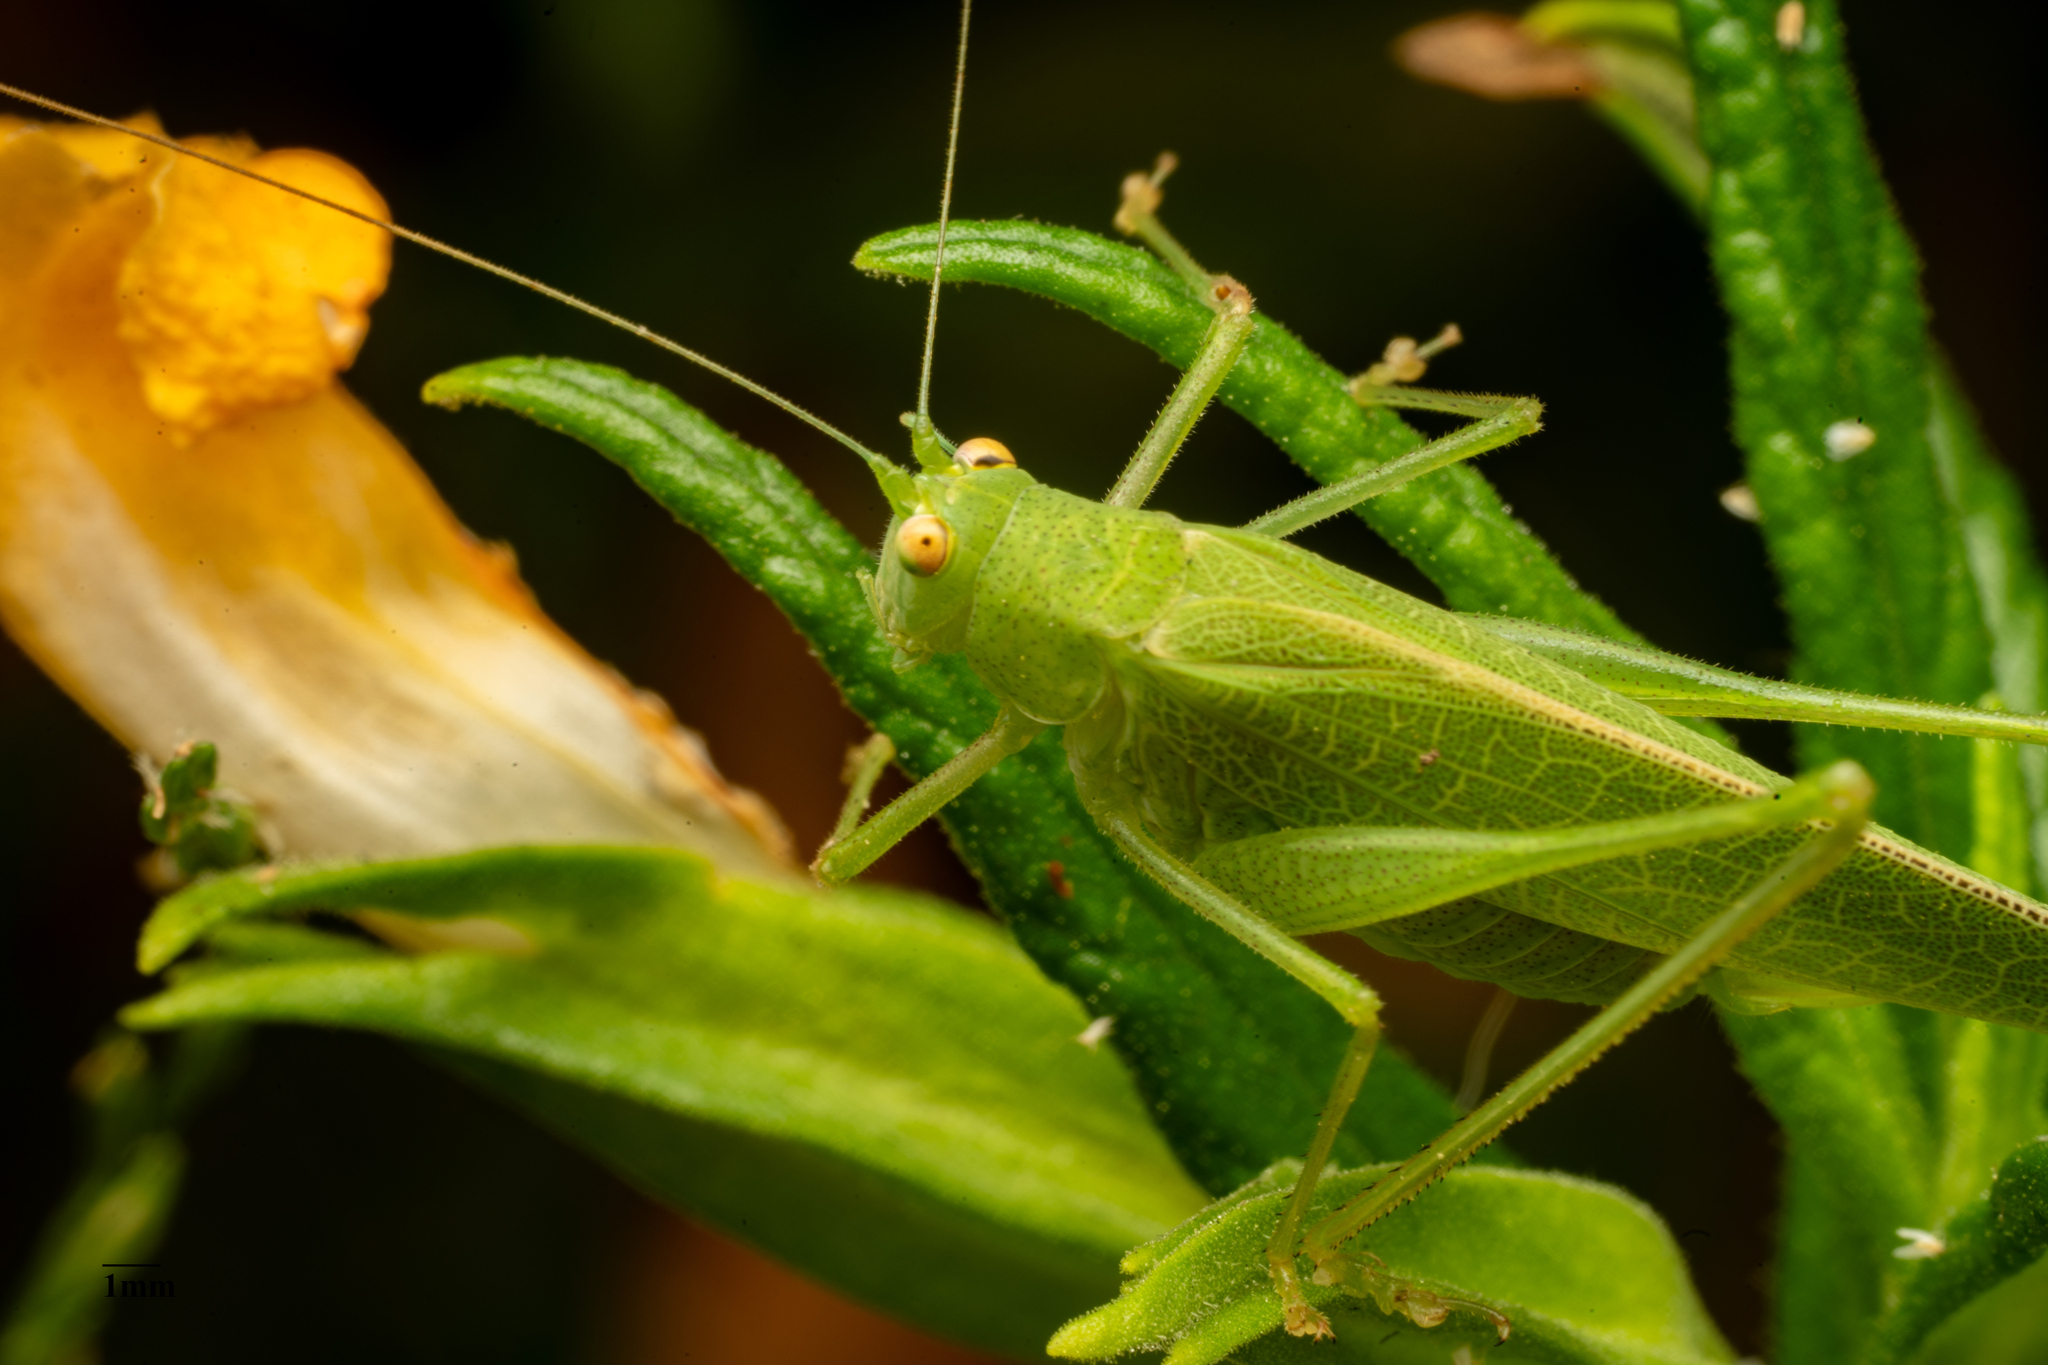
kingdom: Animalia
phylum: Arthropoda
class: Insecta
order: Orthoptera
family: Tettigoniidae
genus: Phaneroptera
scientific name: Phaneroptera nana
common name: Southern sickle bush-cricket
